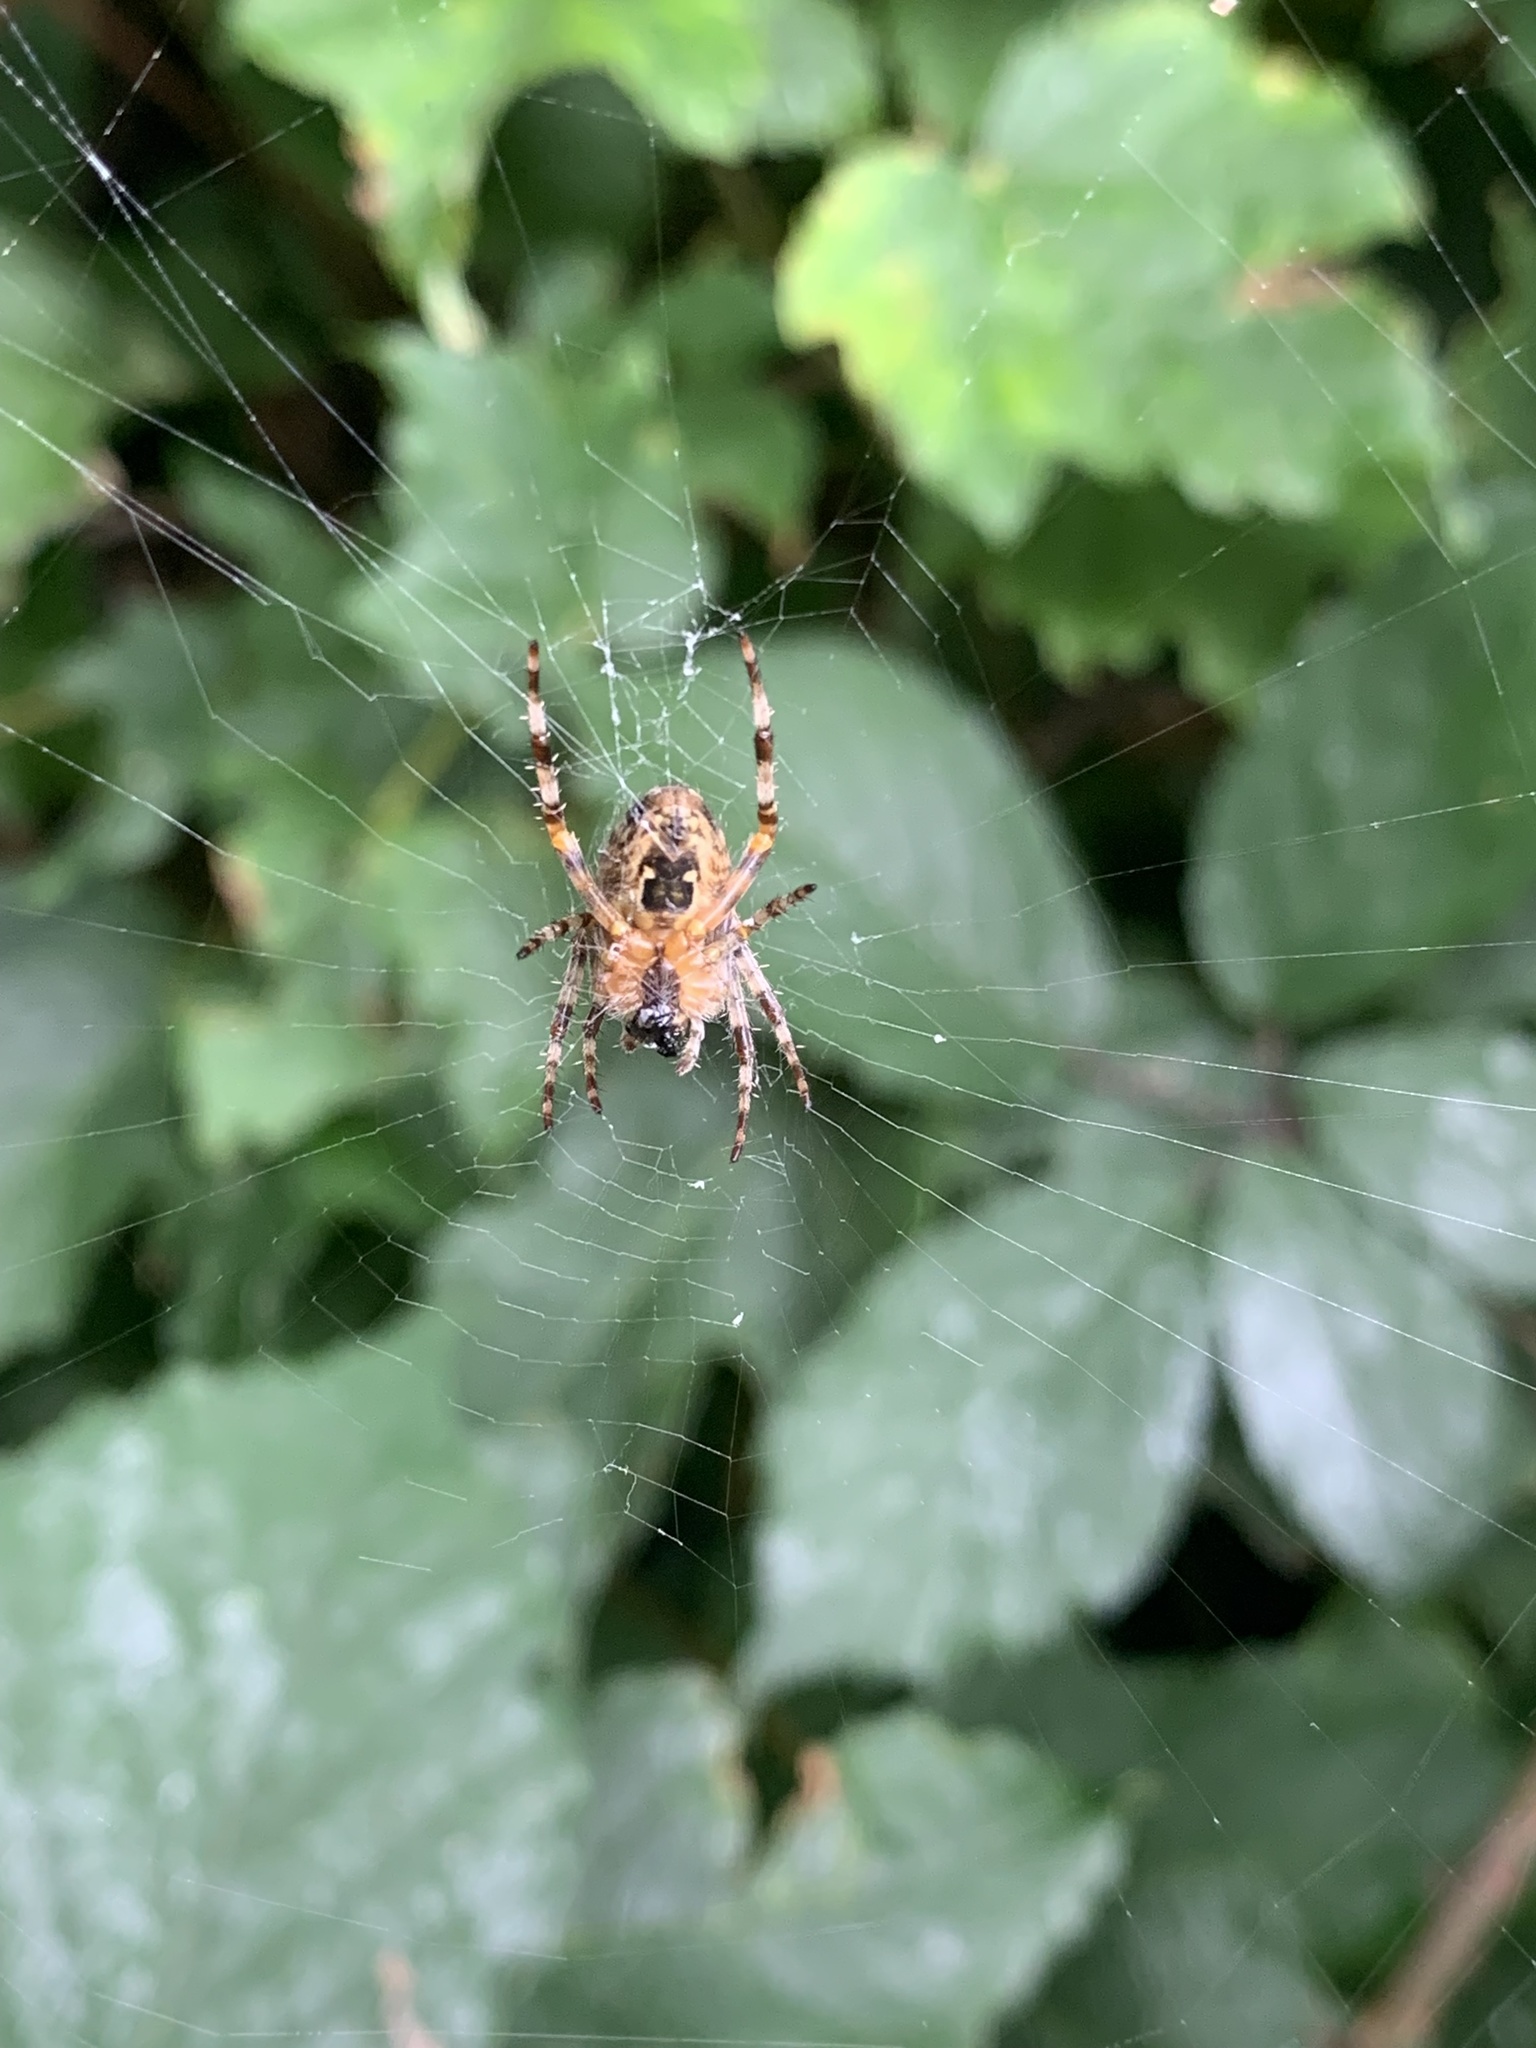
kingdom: Animalia
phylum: Arthropoda
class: Arachnida
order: Araneae
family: Araneidae
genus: Araneus
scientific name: Araneus diadematus
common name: Cross orbweaver
